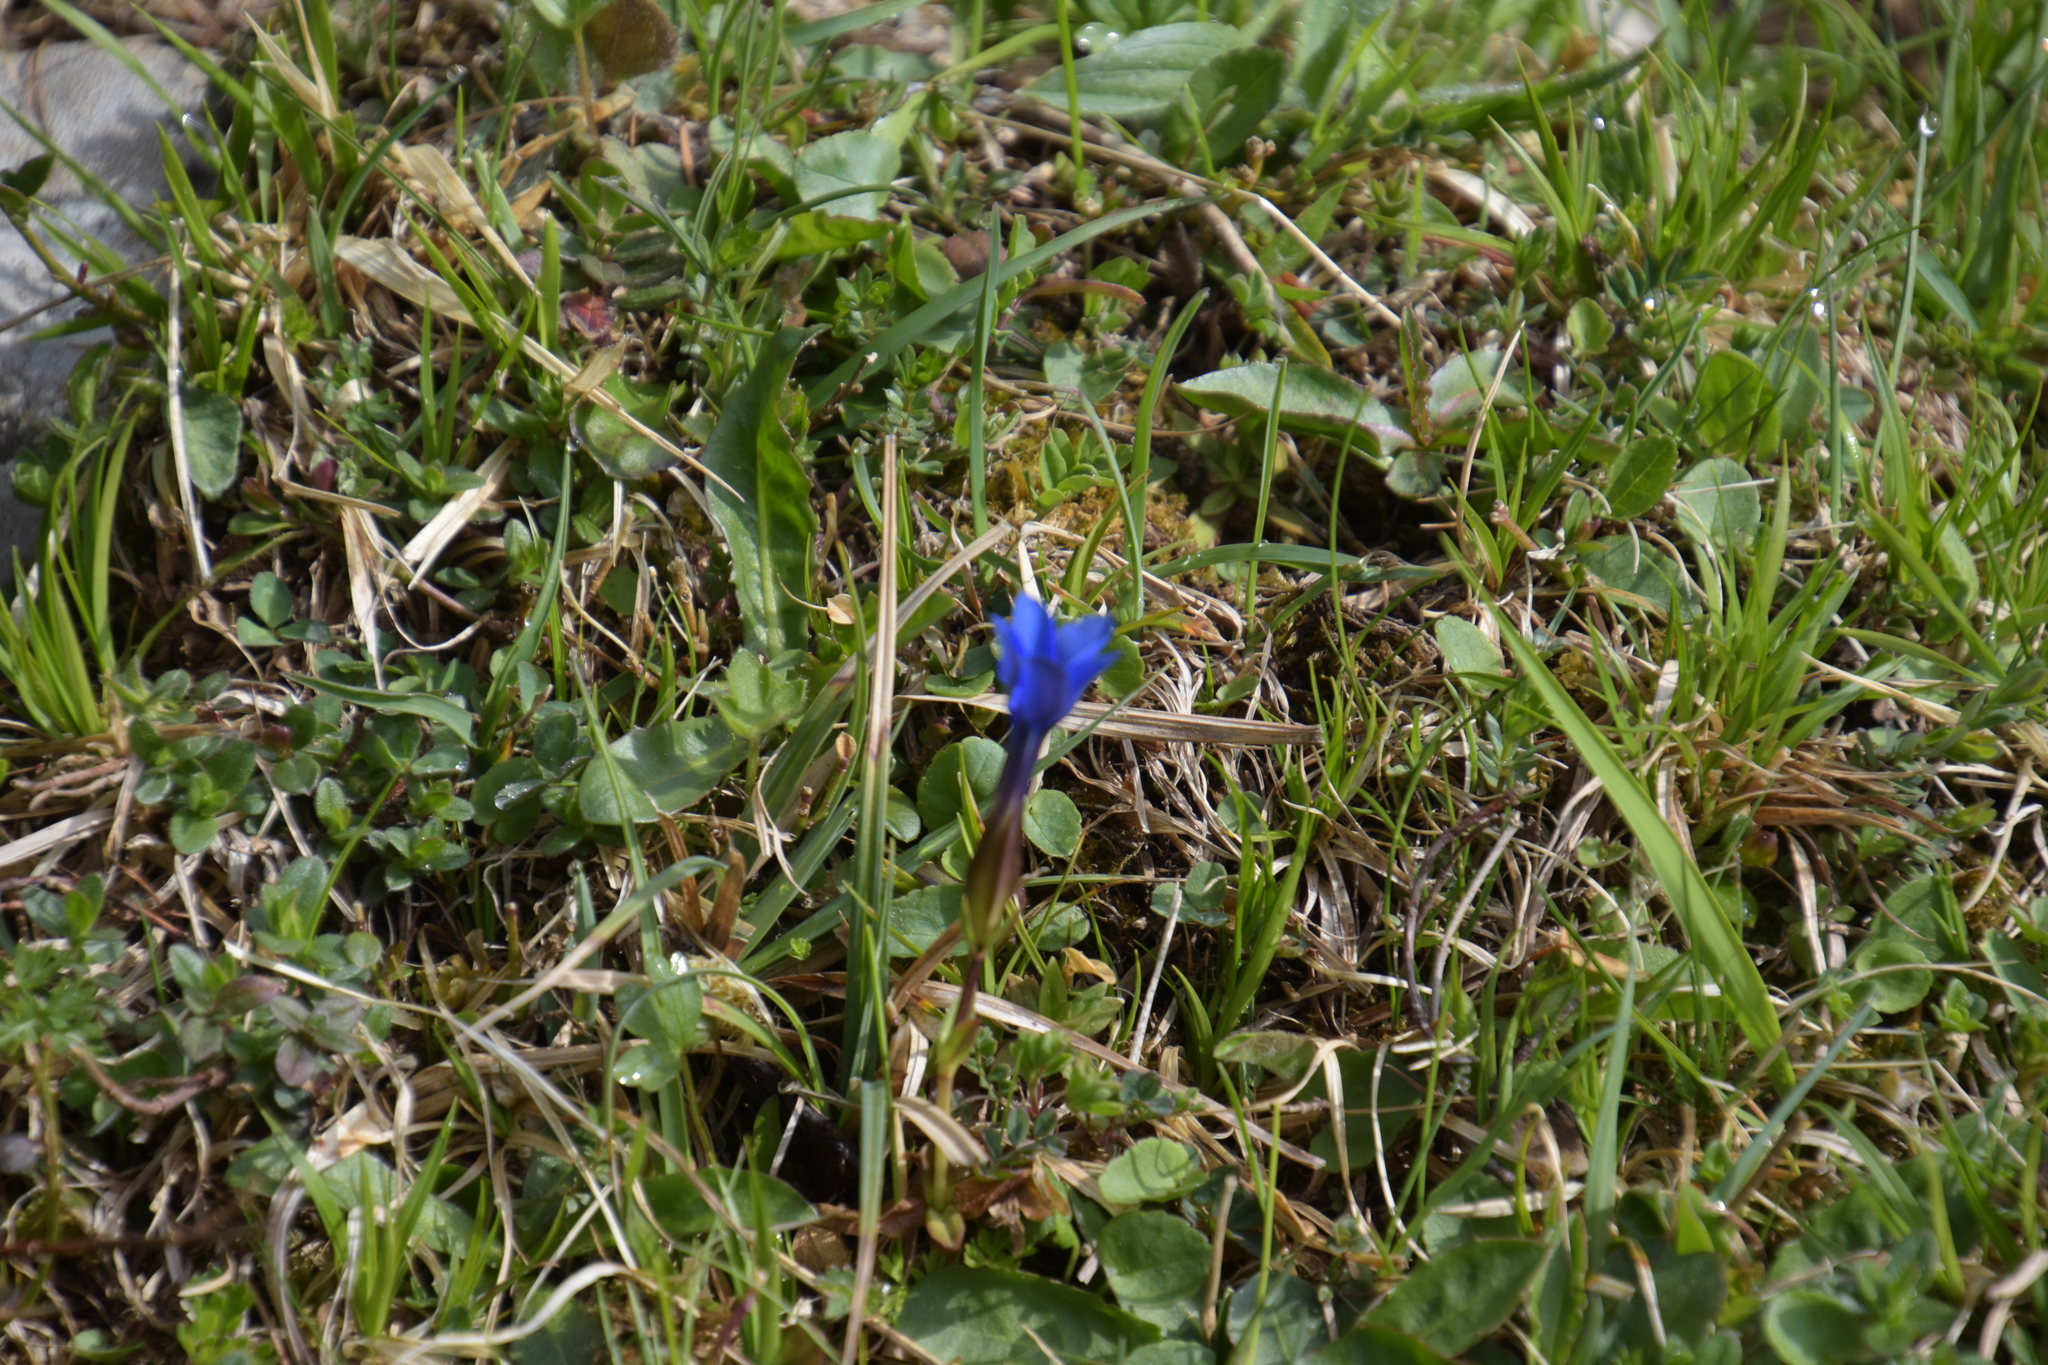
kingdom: Plantae
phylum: Tracheophyta
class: Magnoliopsida
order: Gentianales
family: Gentianaceae
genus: Gentiana
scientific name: Gentiana verna
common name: Spring gentian
